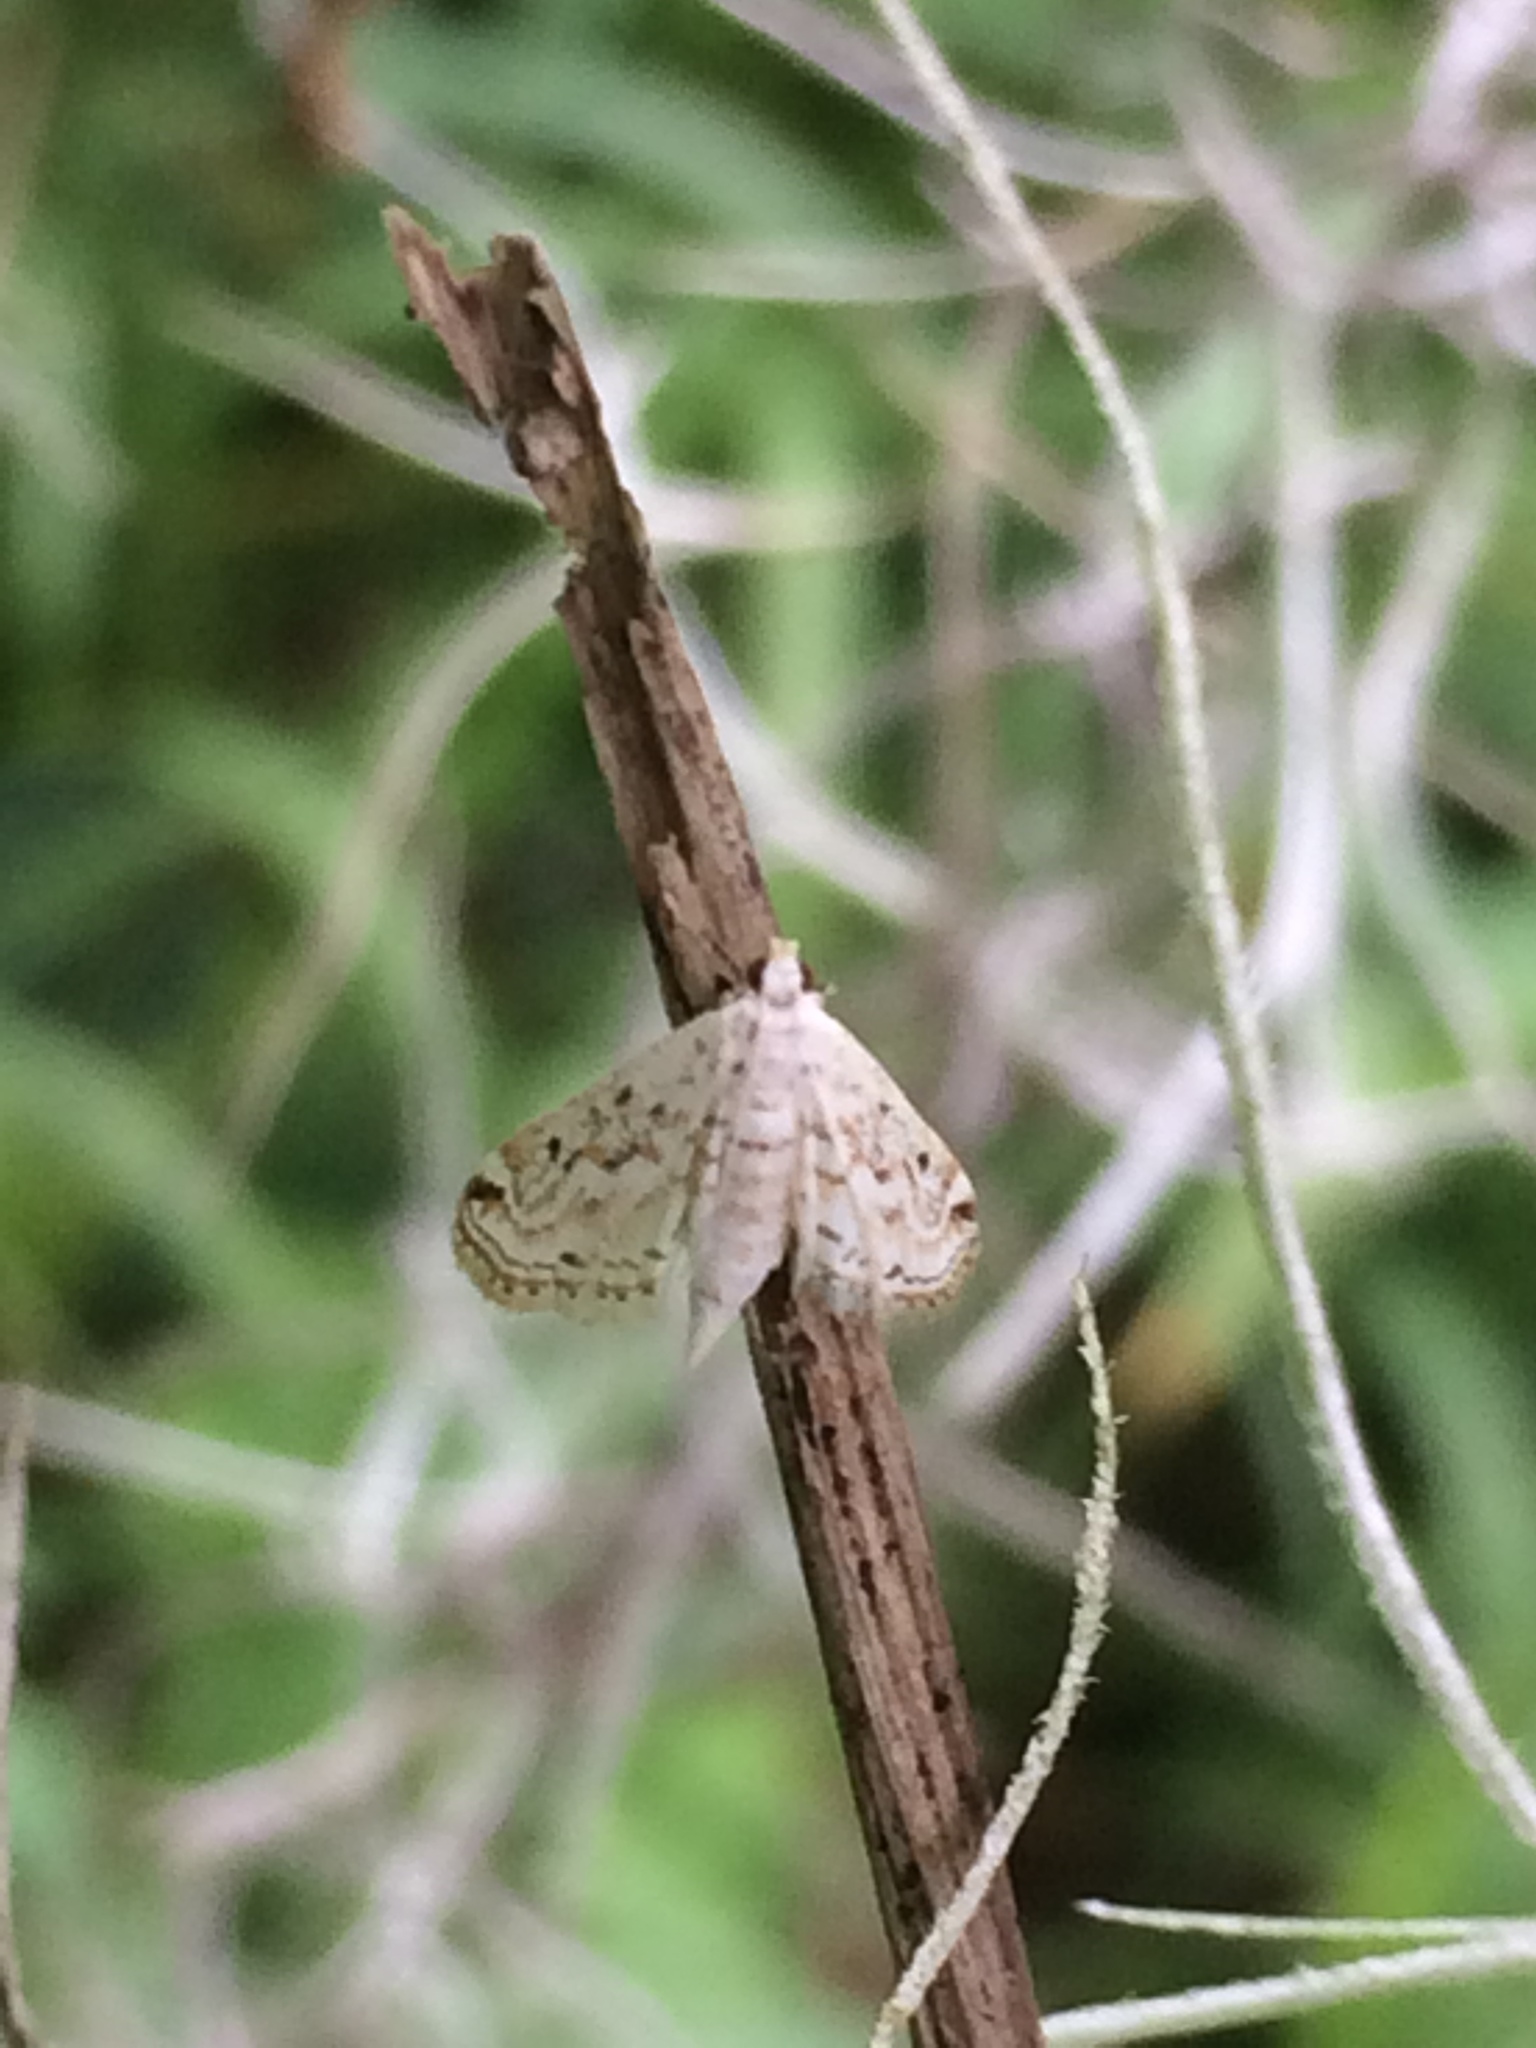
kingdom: Animalia
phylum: Arthropoda
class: Insecta
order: Lepidoptera
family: Crambidae
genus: Parapoynx
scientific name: Parapoynx allionealis
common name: Bladderwort casemaker
